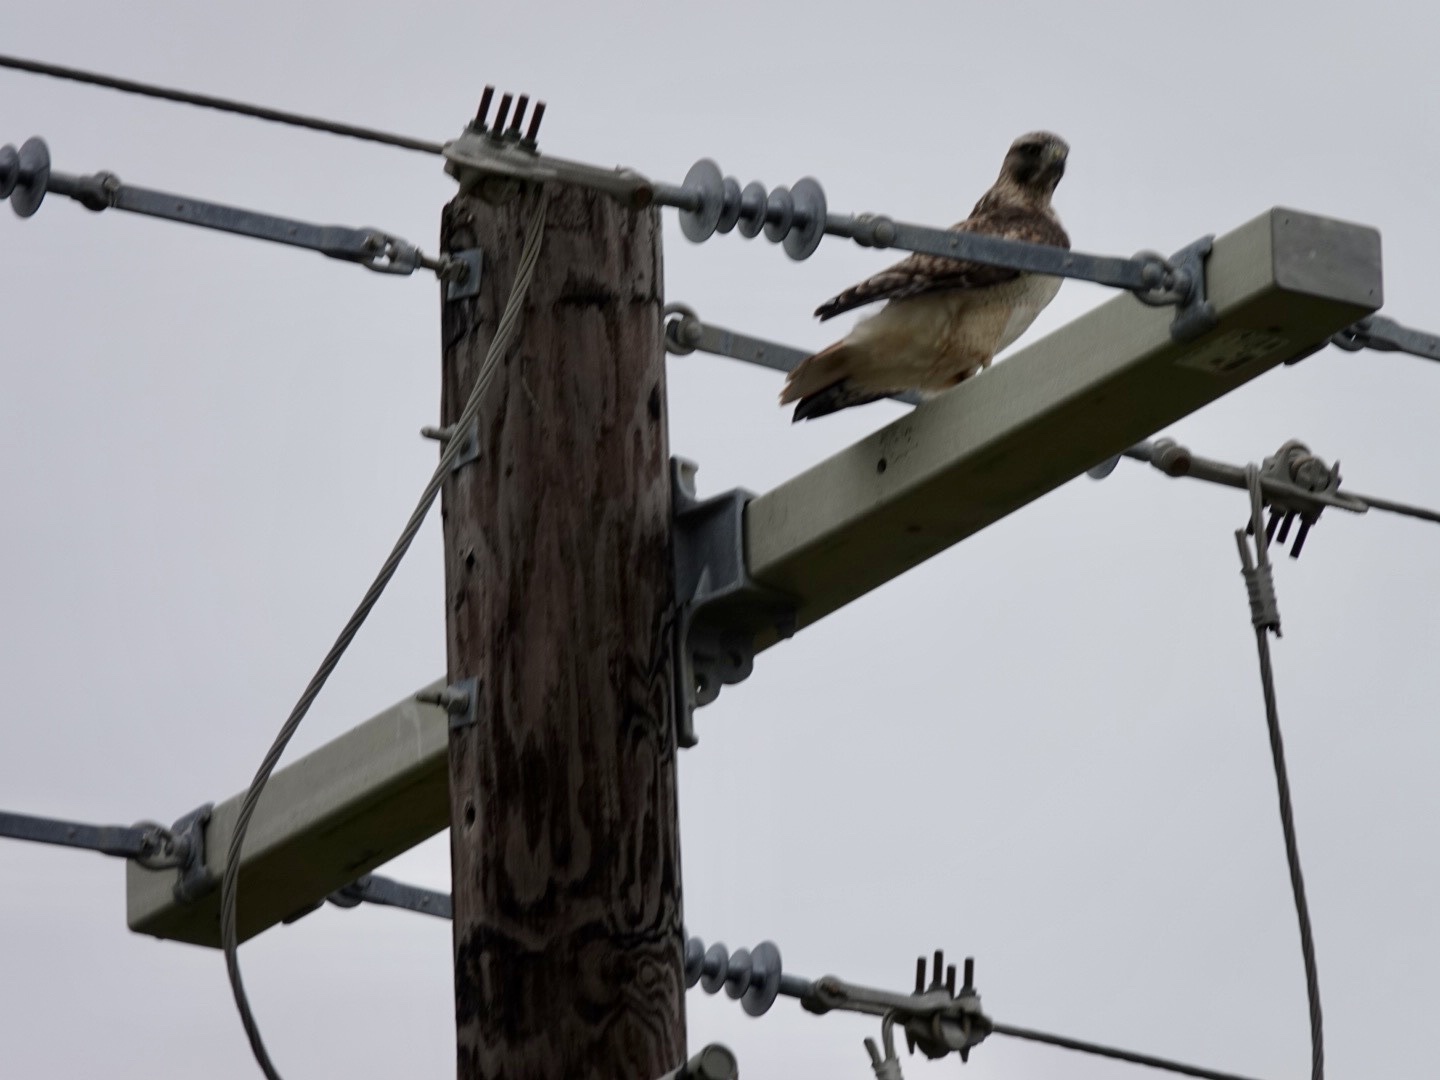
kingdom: Animalia
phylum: Chordata
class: Aves
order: Accipitriformes
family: Accipitridae
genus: Buteo
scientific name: Buteo jamaicensis
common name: Red-tailed hawk
